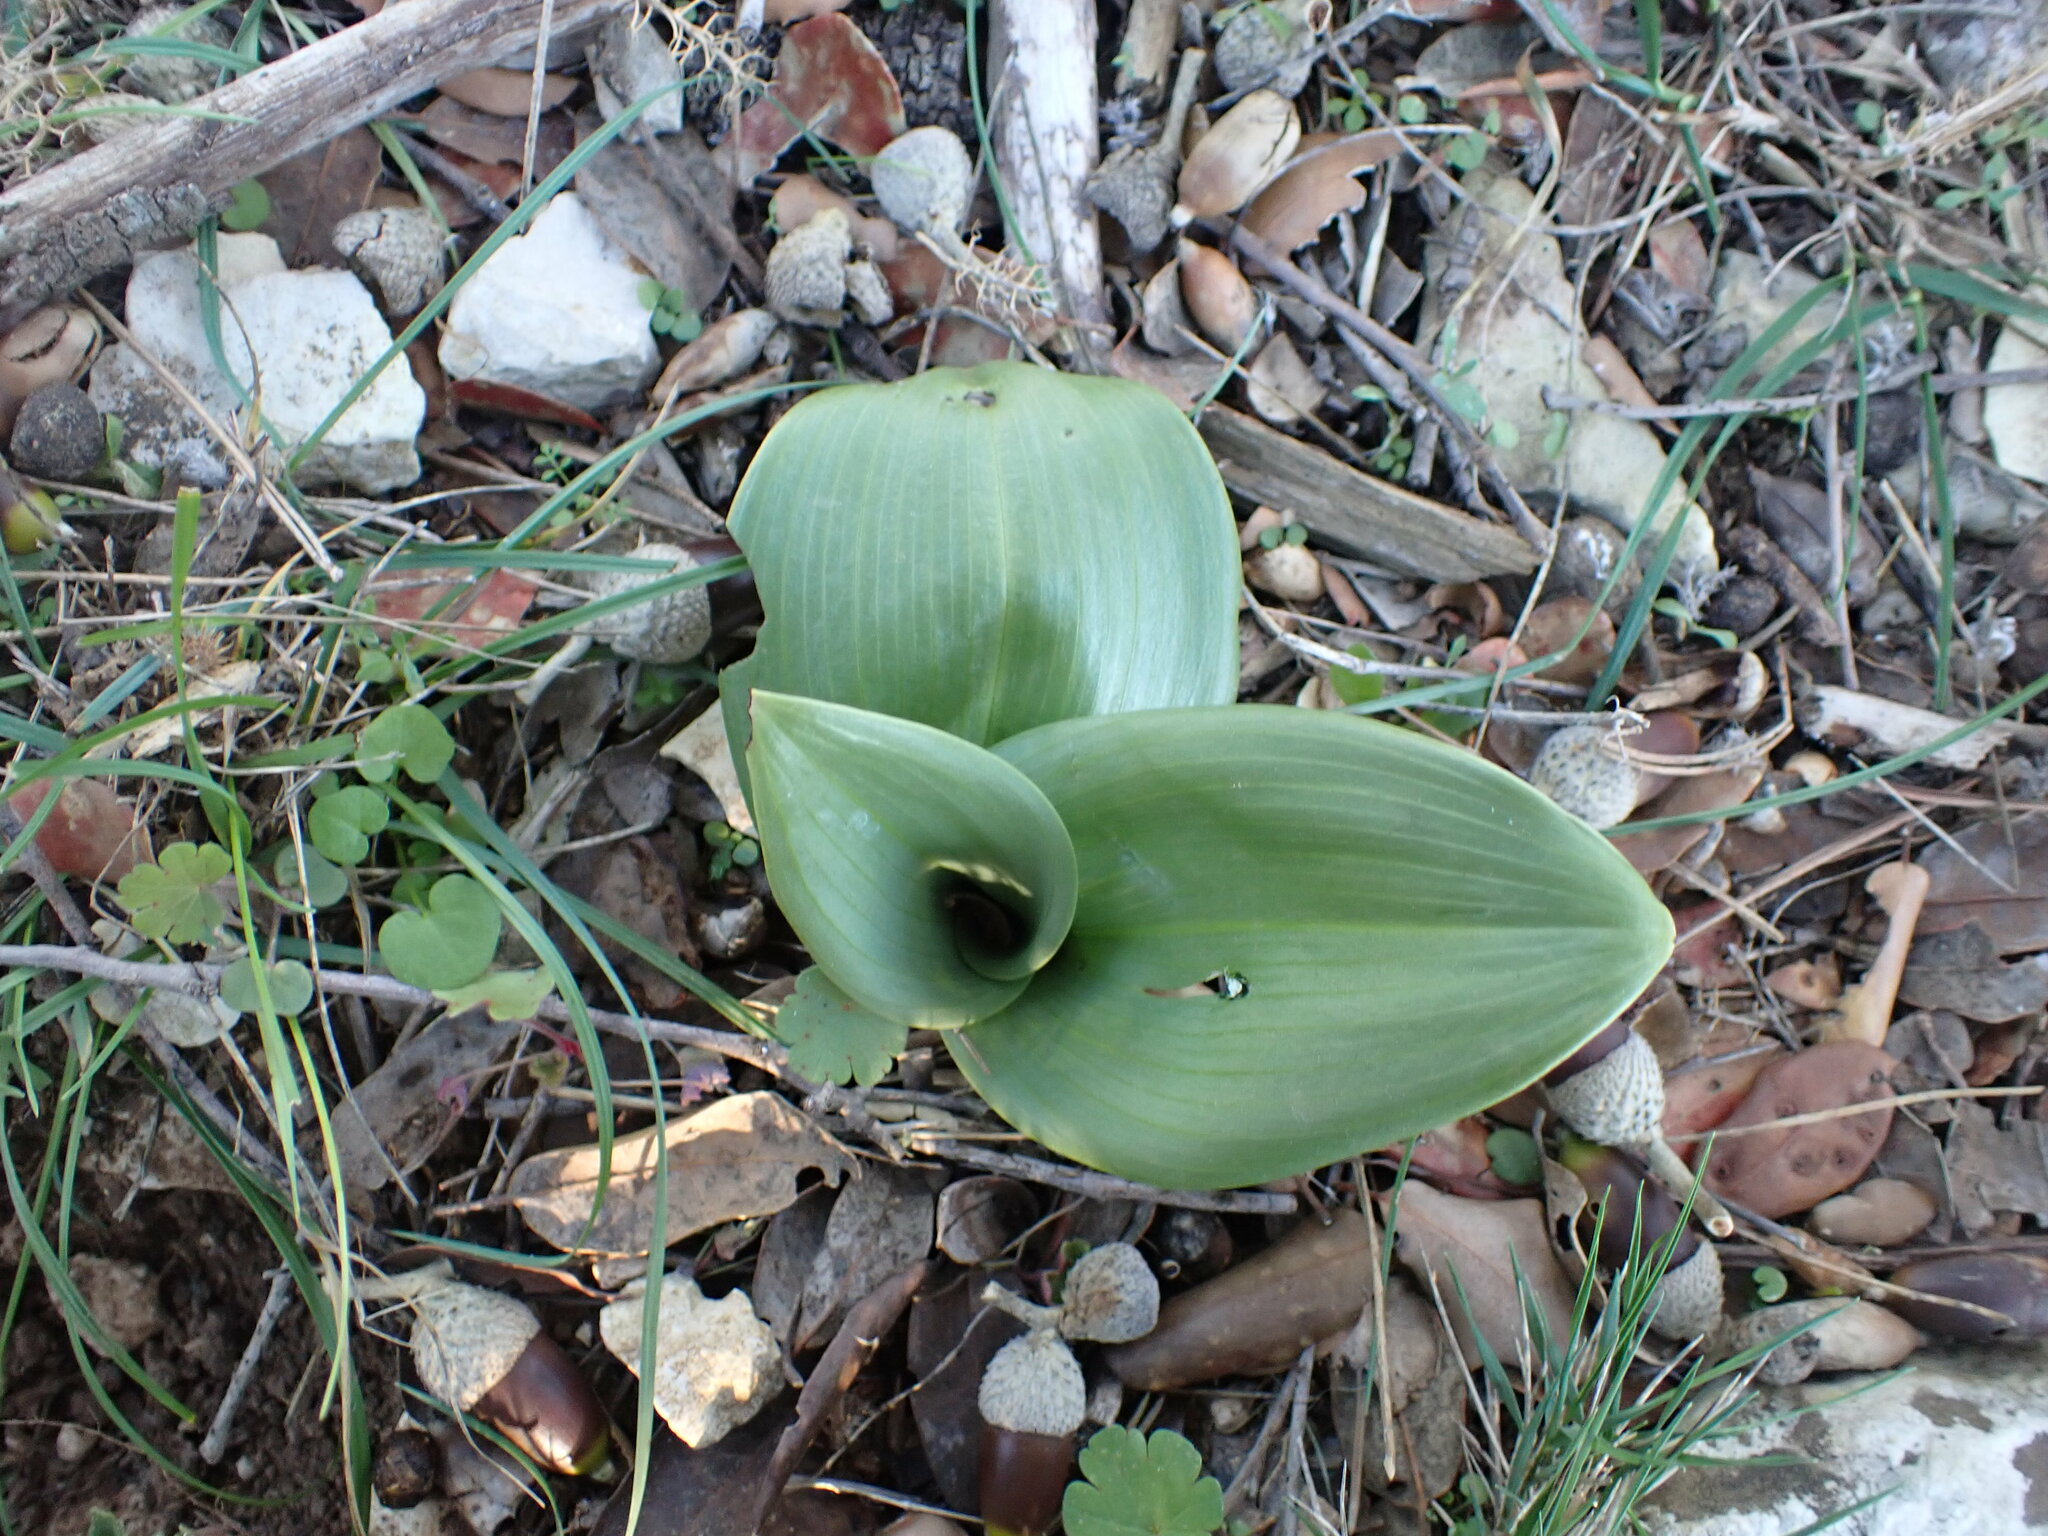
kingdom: Plantae
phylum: Tracheophyta
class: Liliopsida
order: Asparagales
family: Orchidaceae
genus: Himantoglossum
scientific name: Himantoglossum robertianum
